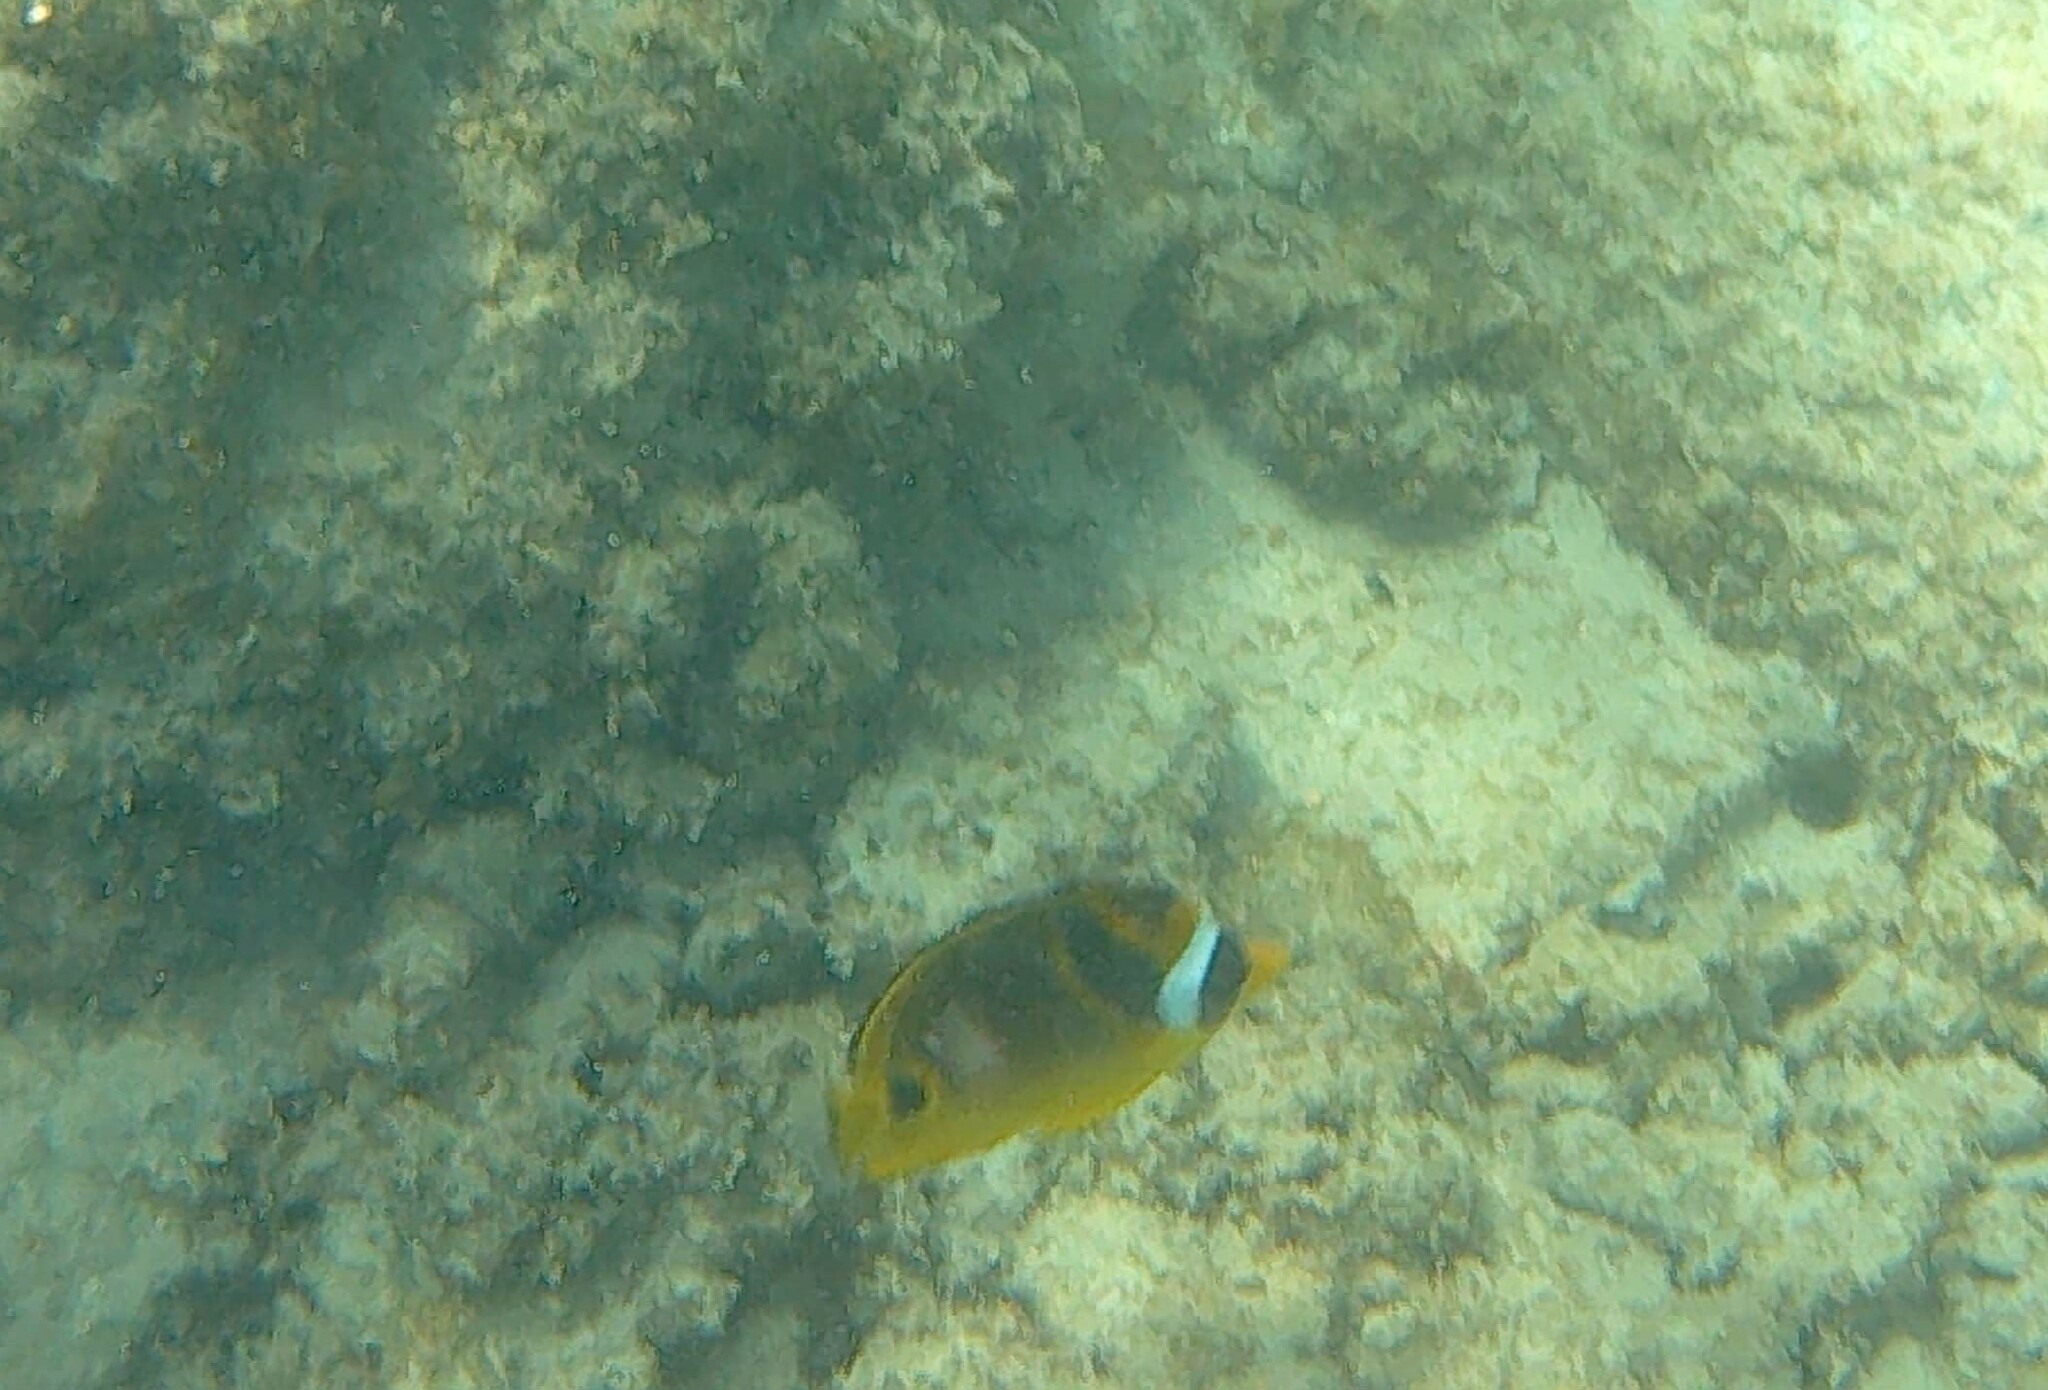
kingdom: Animalia
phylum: Chordata
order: Perciformes
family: Chaetodontidae
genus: Chaetodon
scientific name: Chaetodon lunula
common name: Raccoon butterflyfish
